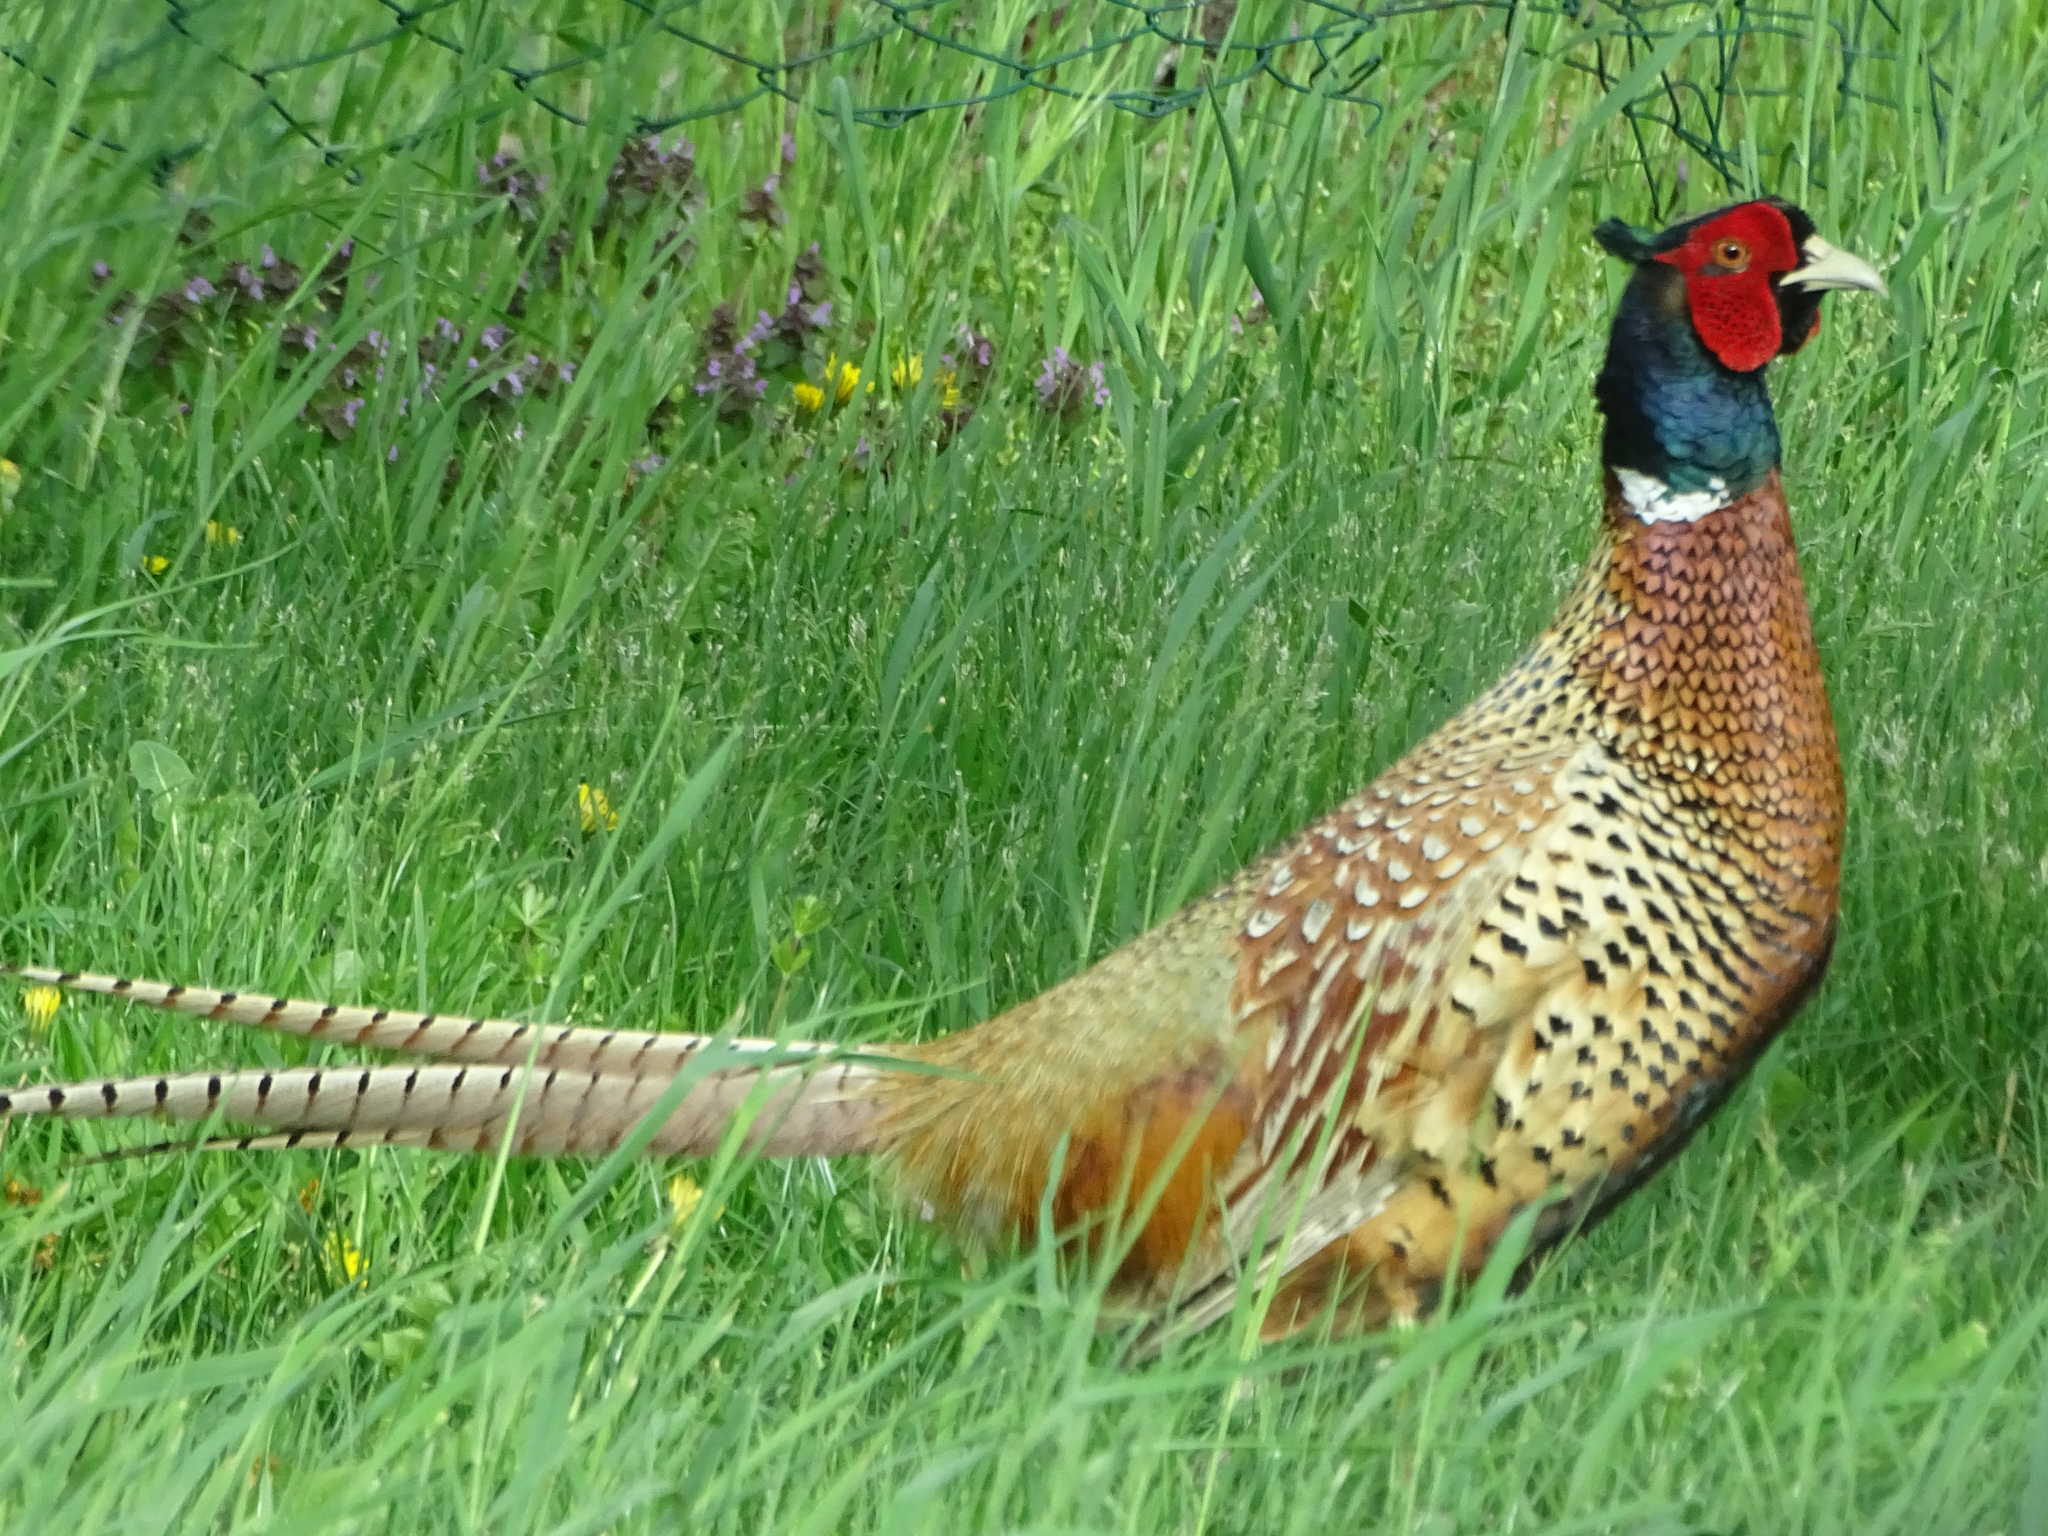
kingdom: Animalia
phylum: Chordata
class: Aves
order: Galliformes
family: Phasianidae
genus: Phasianus
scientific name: Phasianus colchicus
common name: Common pheasant
